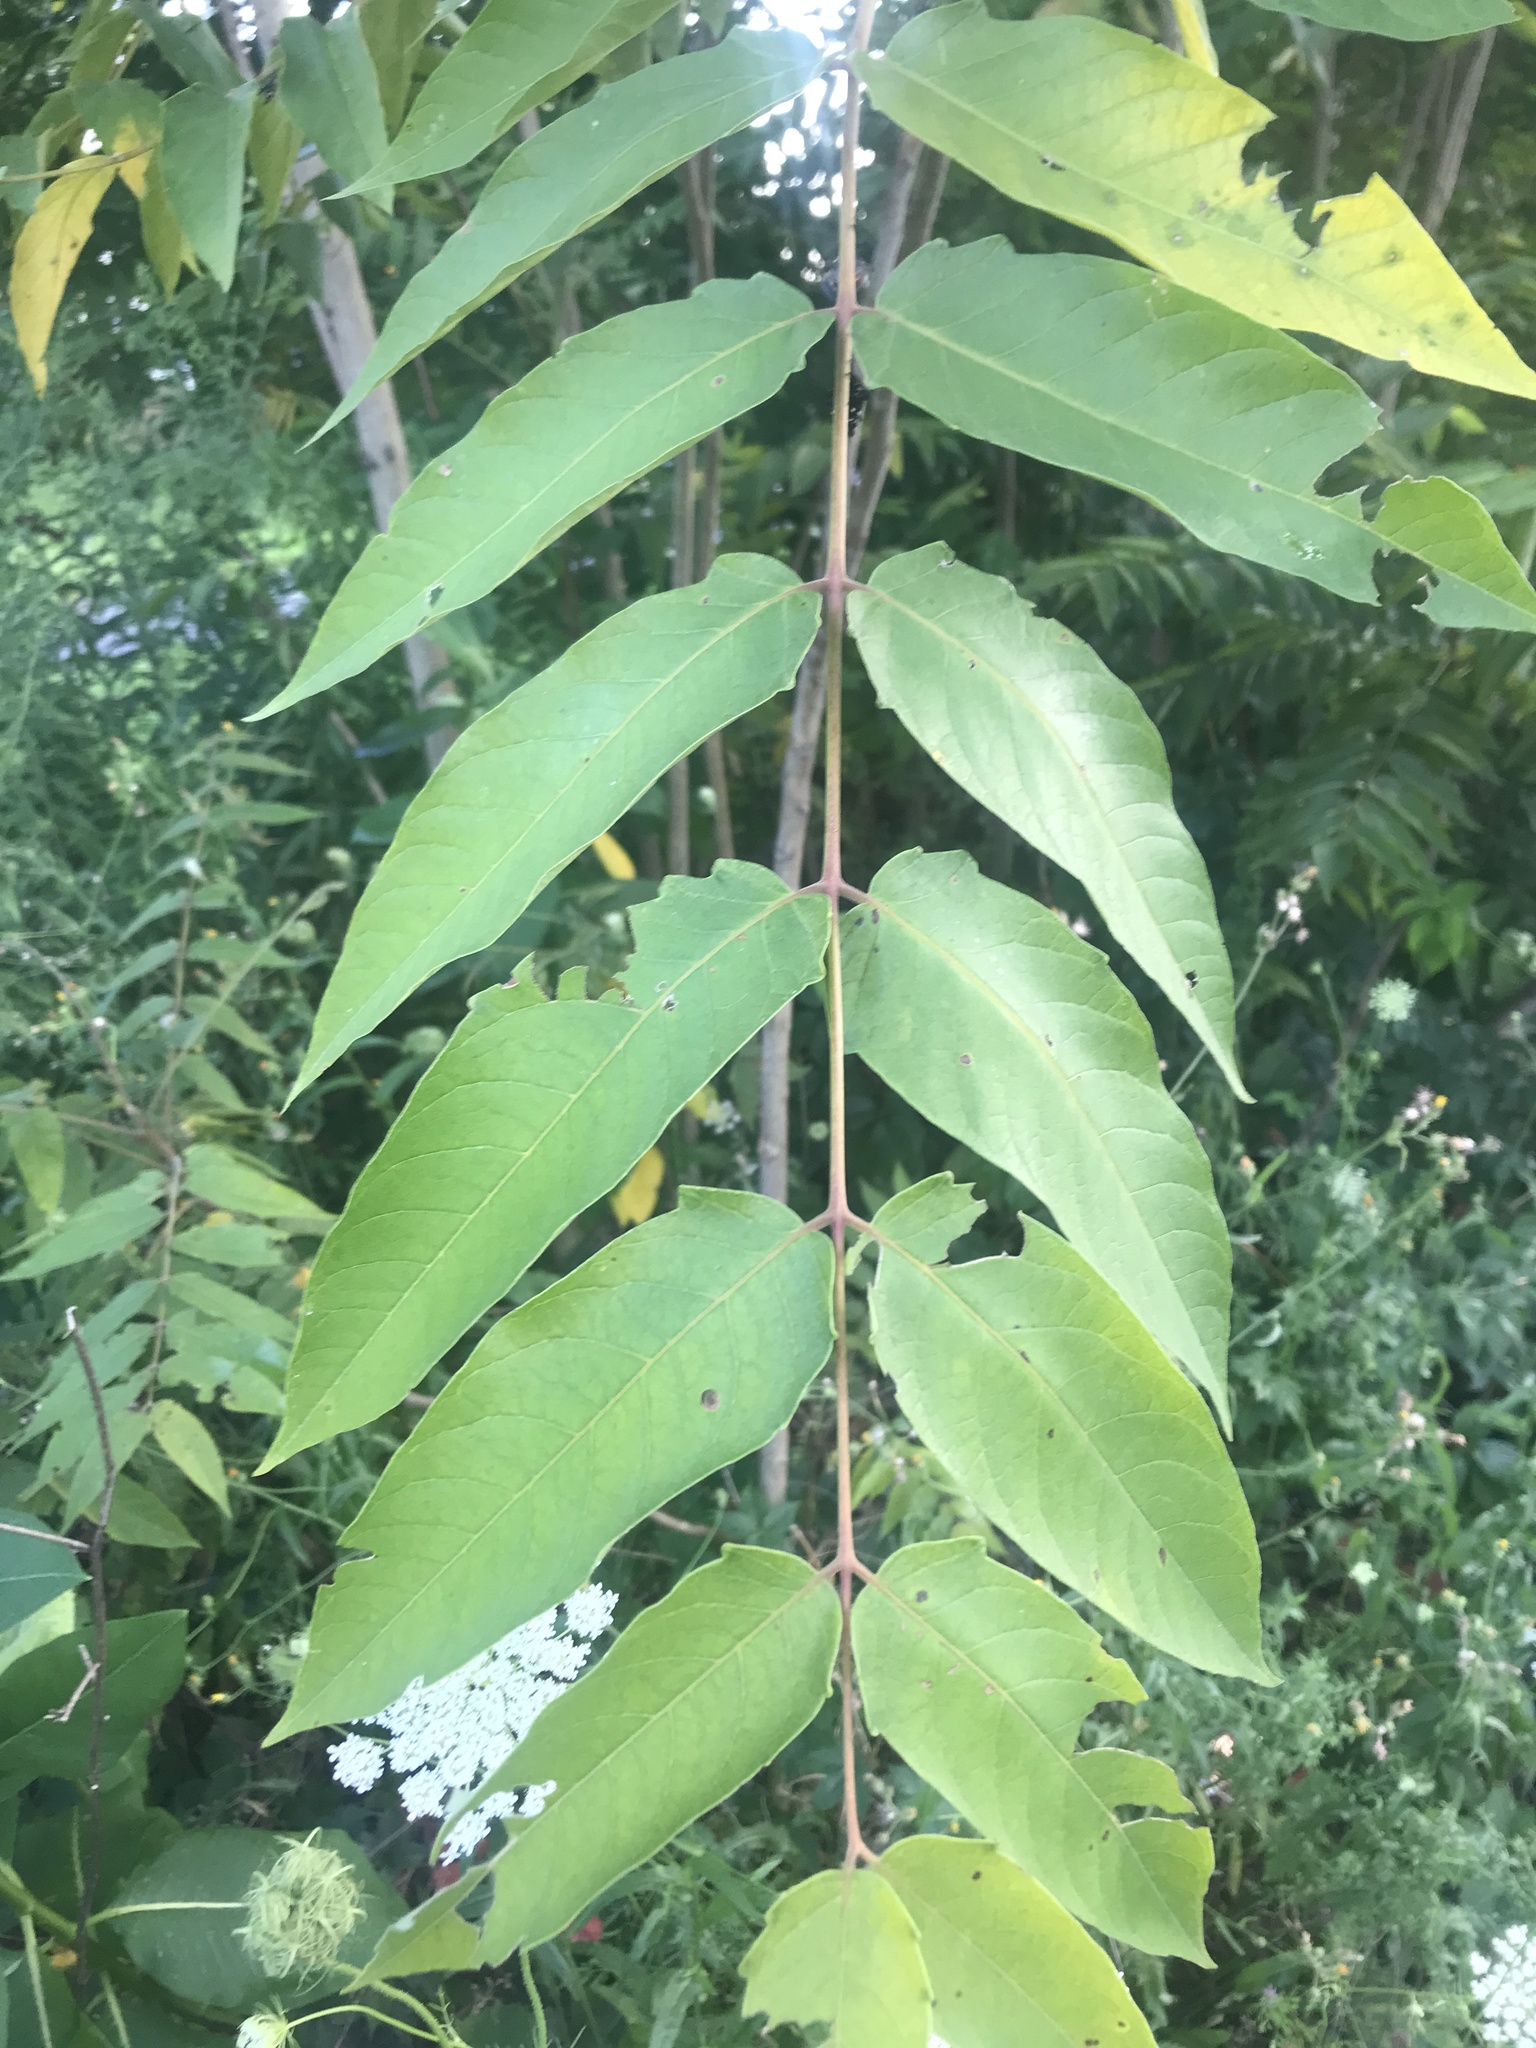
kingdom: Plantae
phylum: Tracheophyta
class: Magnoliopsida
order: Sapindales
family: Simaroubaceae
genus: Ailanthus
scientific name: Ailanthus altissima
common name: Tree-of-heaven
